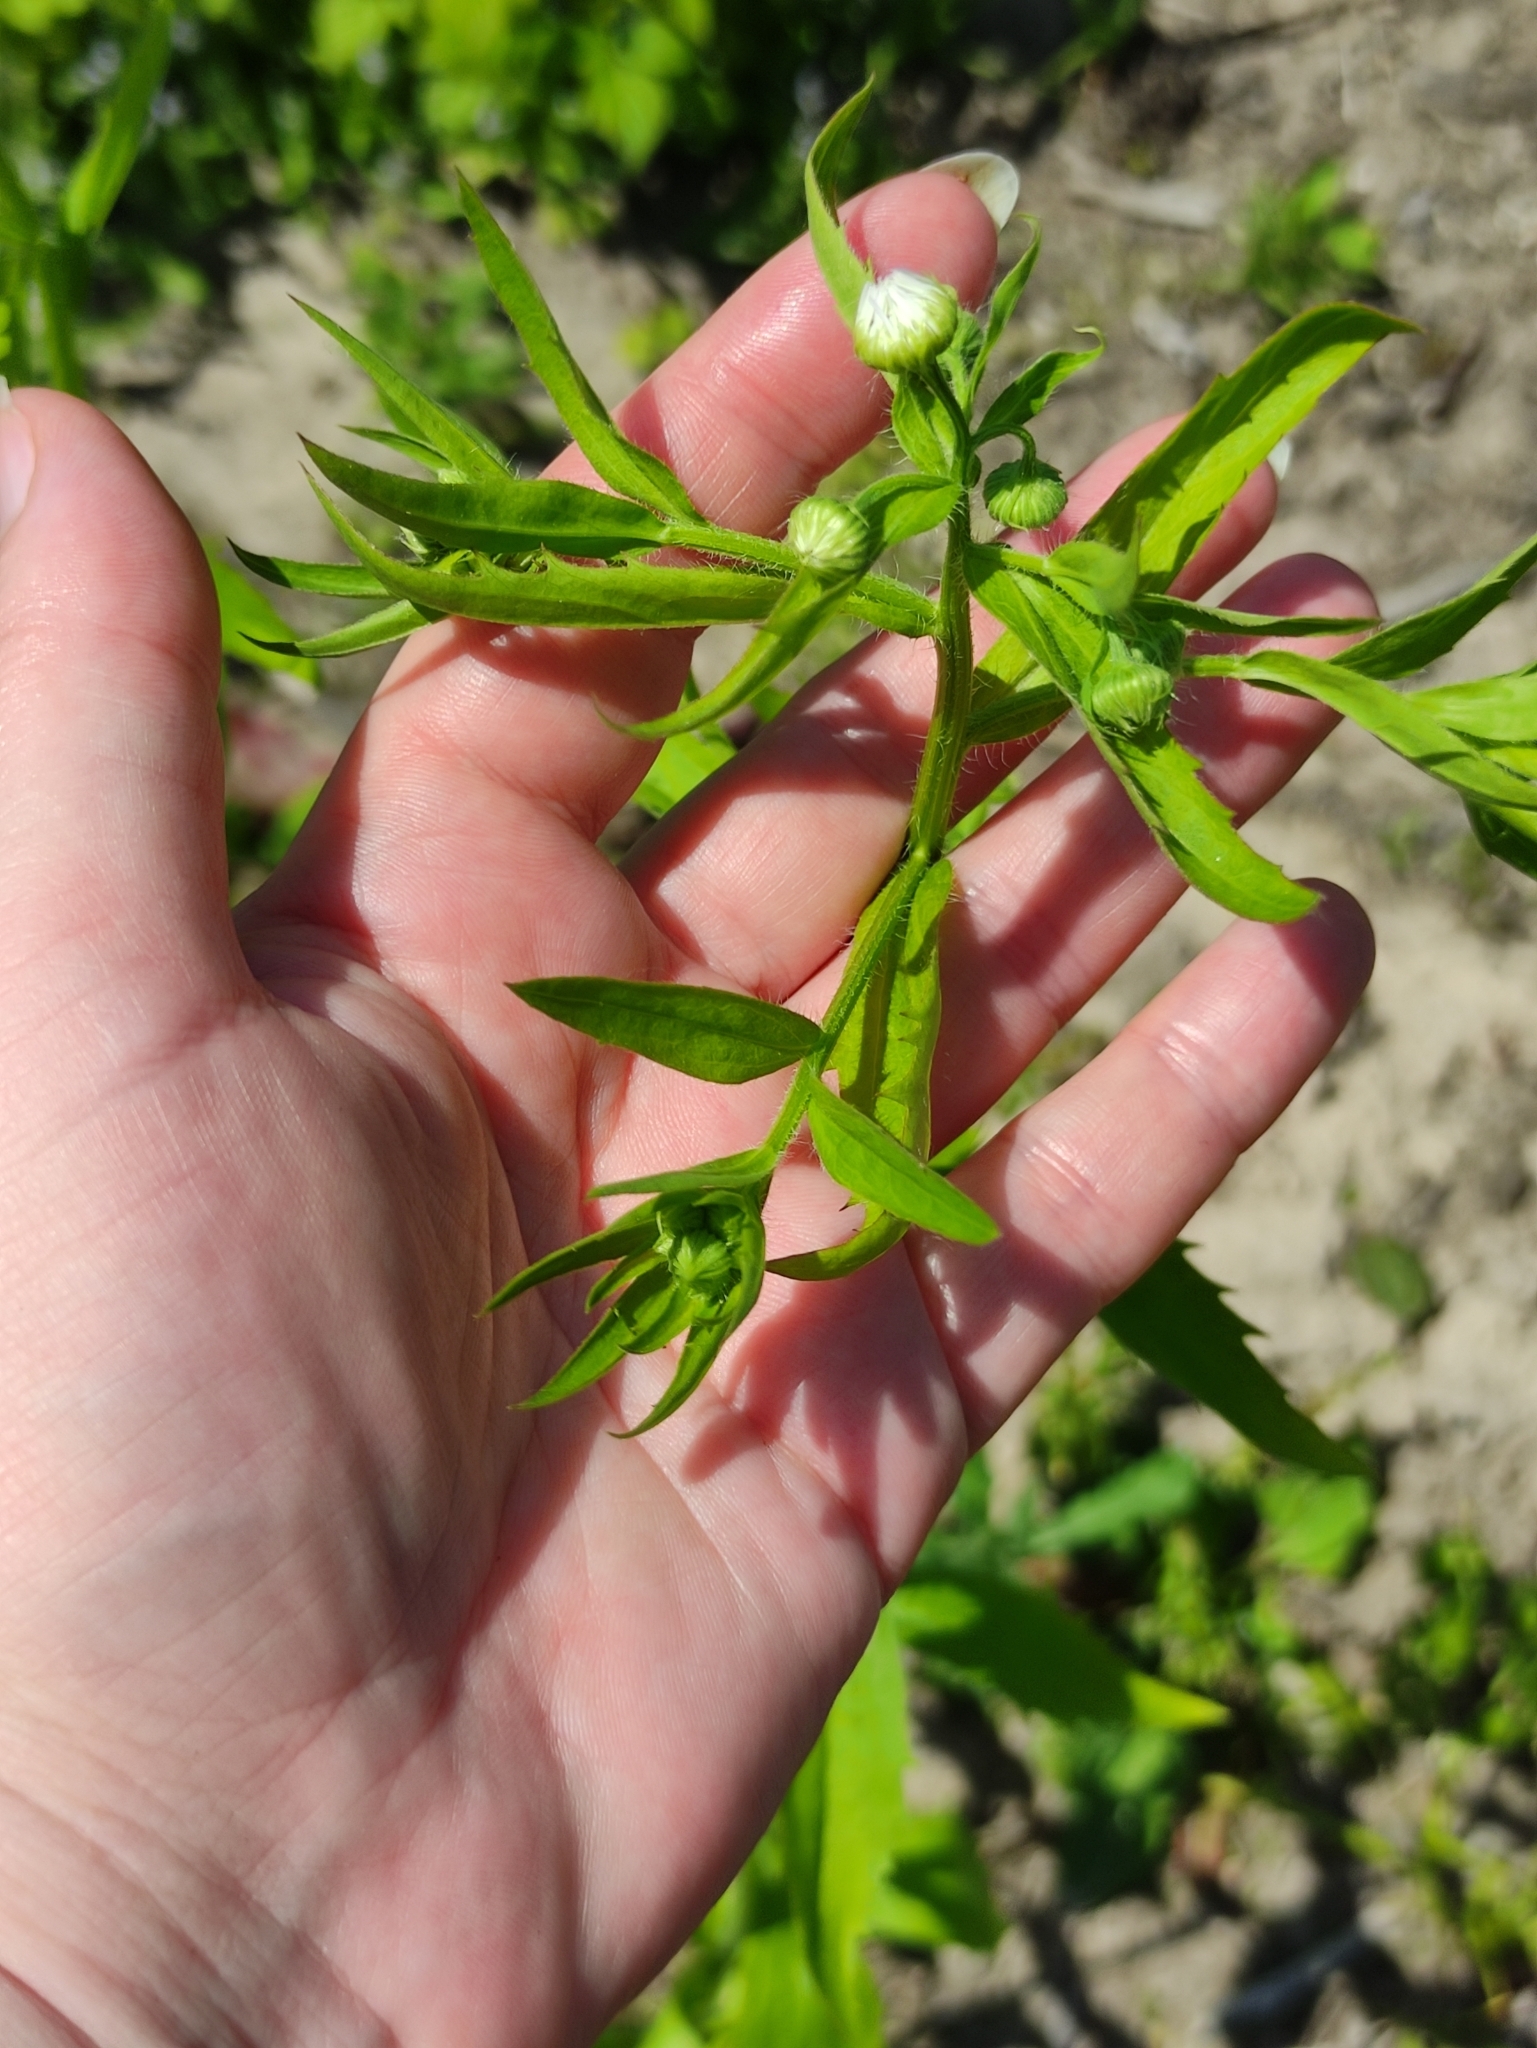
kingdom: Plantae
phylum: Tracheophyta
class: Magnoliopsida
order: Asterales
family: Asteraceae
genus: Erigeron
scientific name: Erigeron annuus
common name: Tall fleabane
